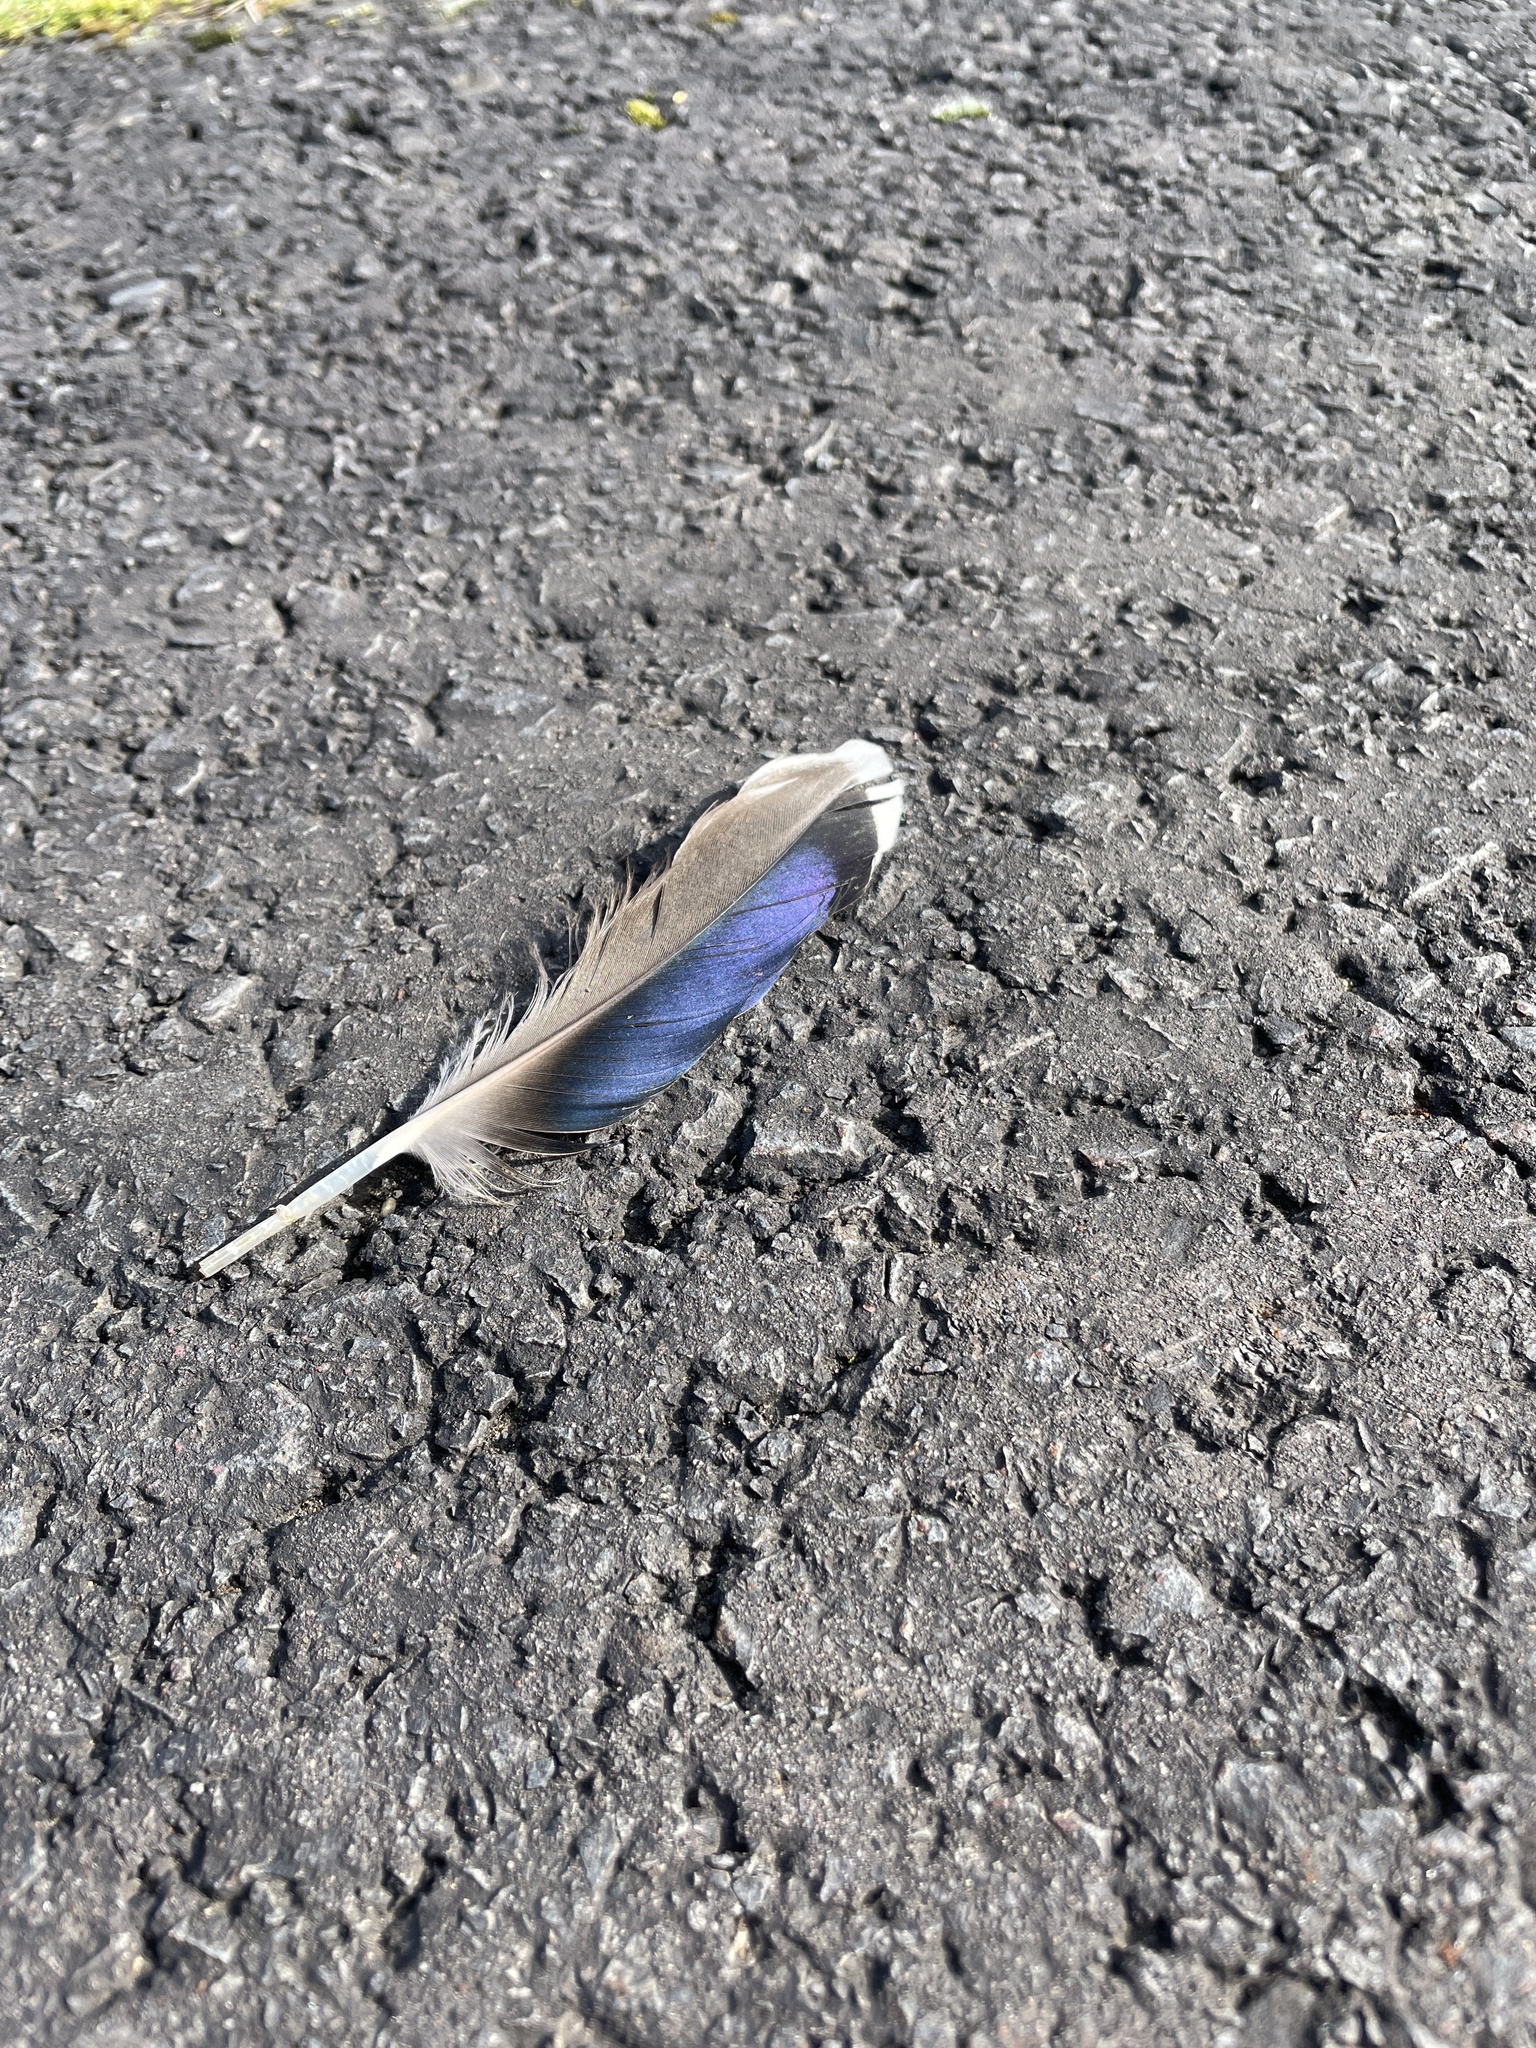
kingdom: Animalia
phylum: Chordata
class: Aves
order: Anseriformes
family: Anatidae
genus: Anas
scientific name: Anas platyrhynchos
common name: Mallard
